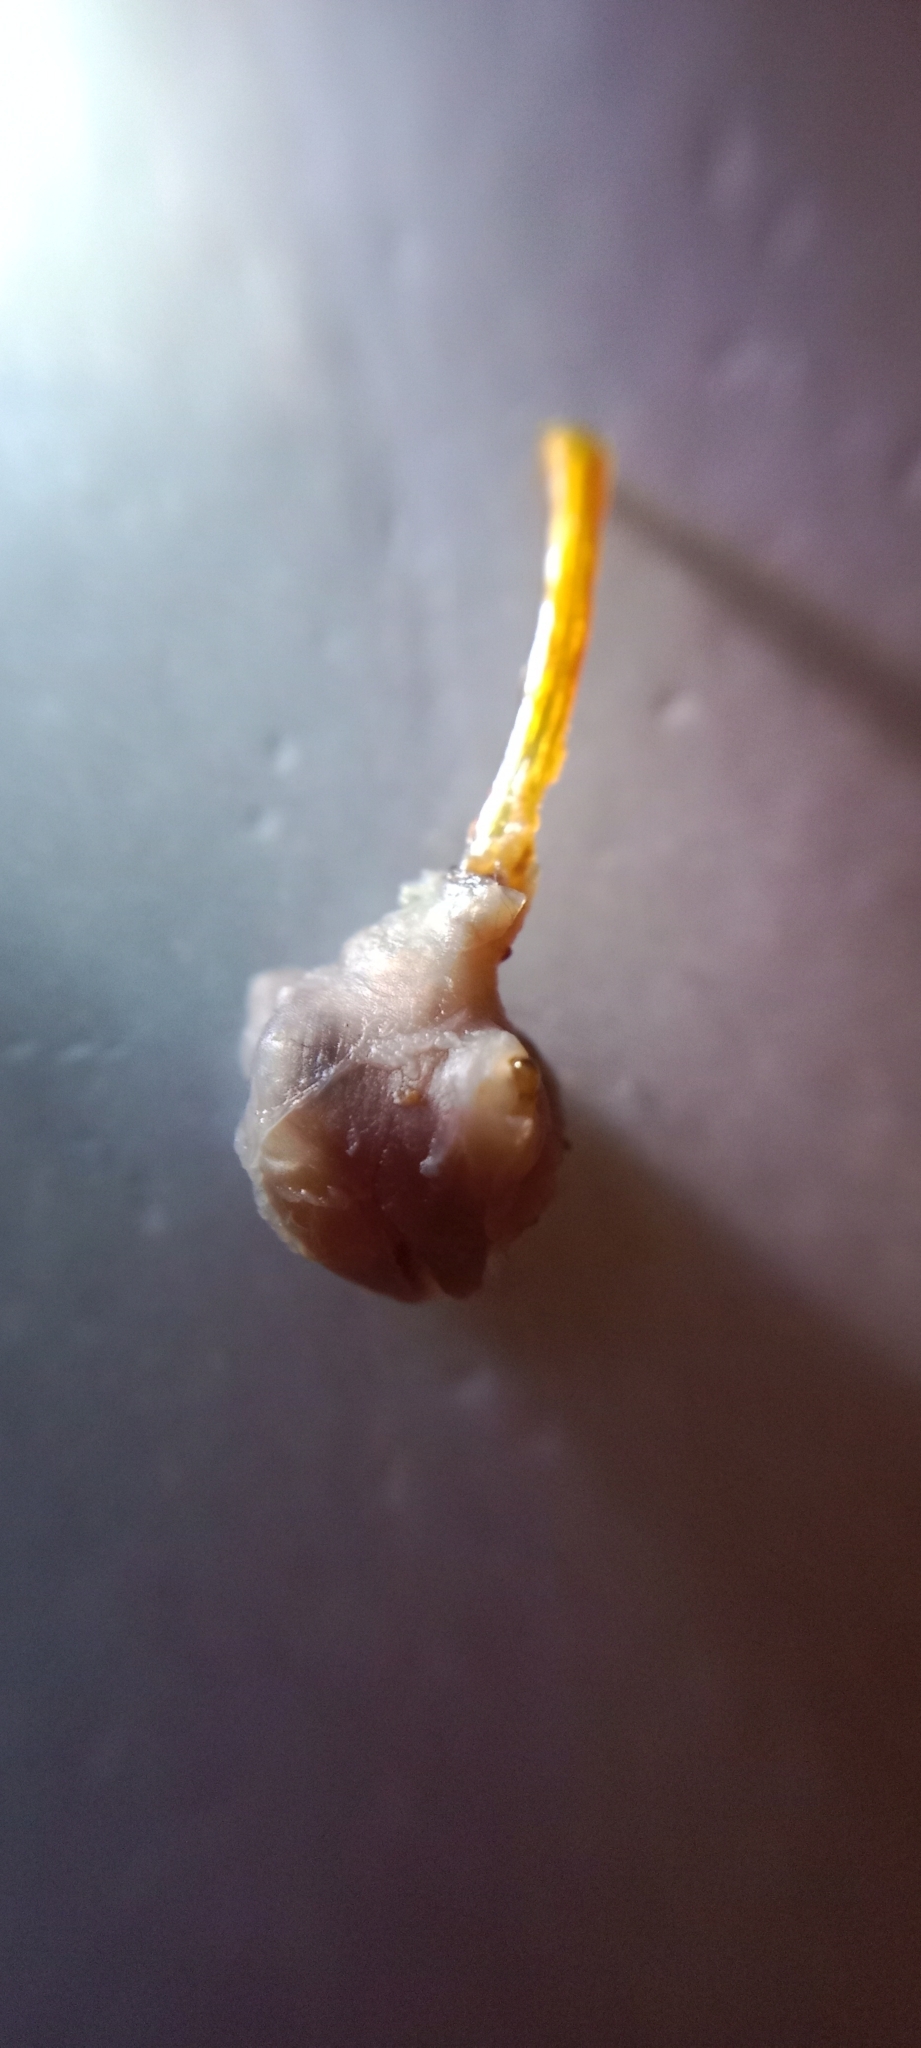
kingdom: Animalia
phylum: Arthropoda
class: Copepoda
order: Siphonostomatoida
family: Pennellidae
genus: Lernaeocera
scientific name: Lernaeocera branchialis
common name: Throat-ogre
